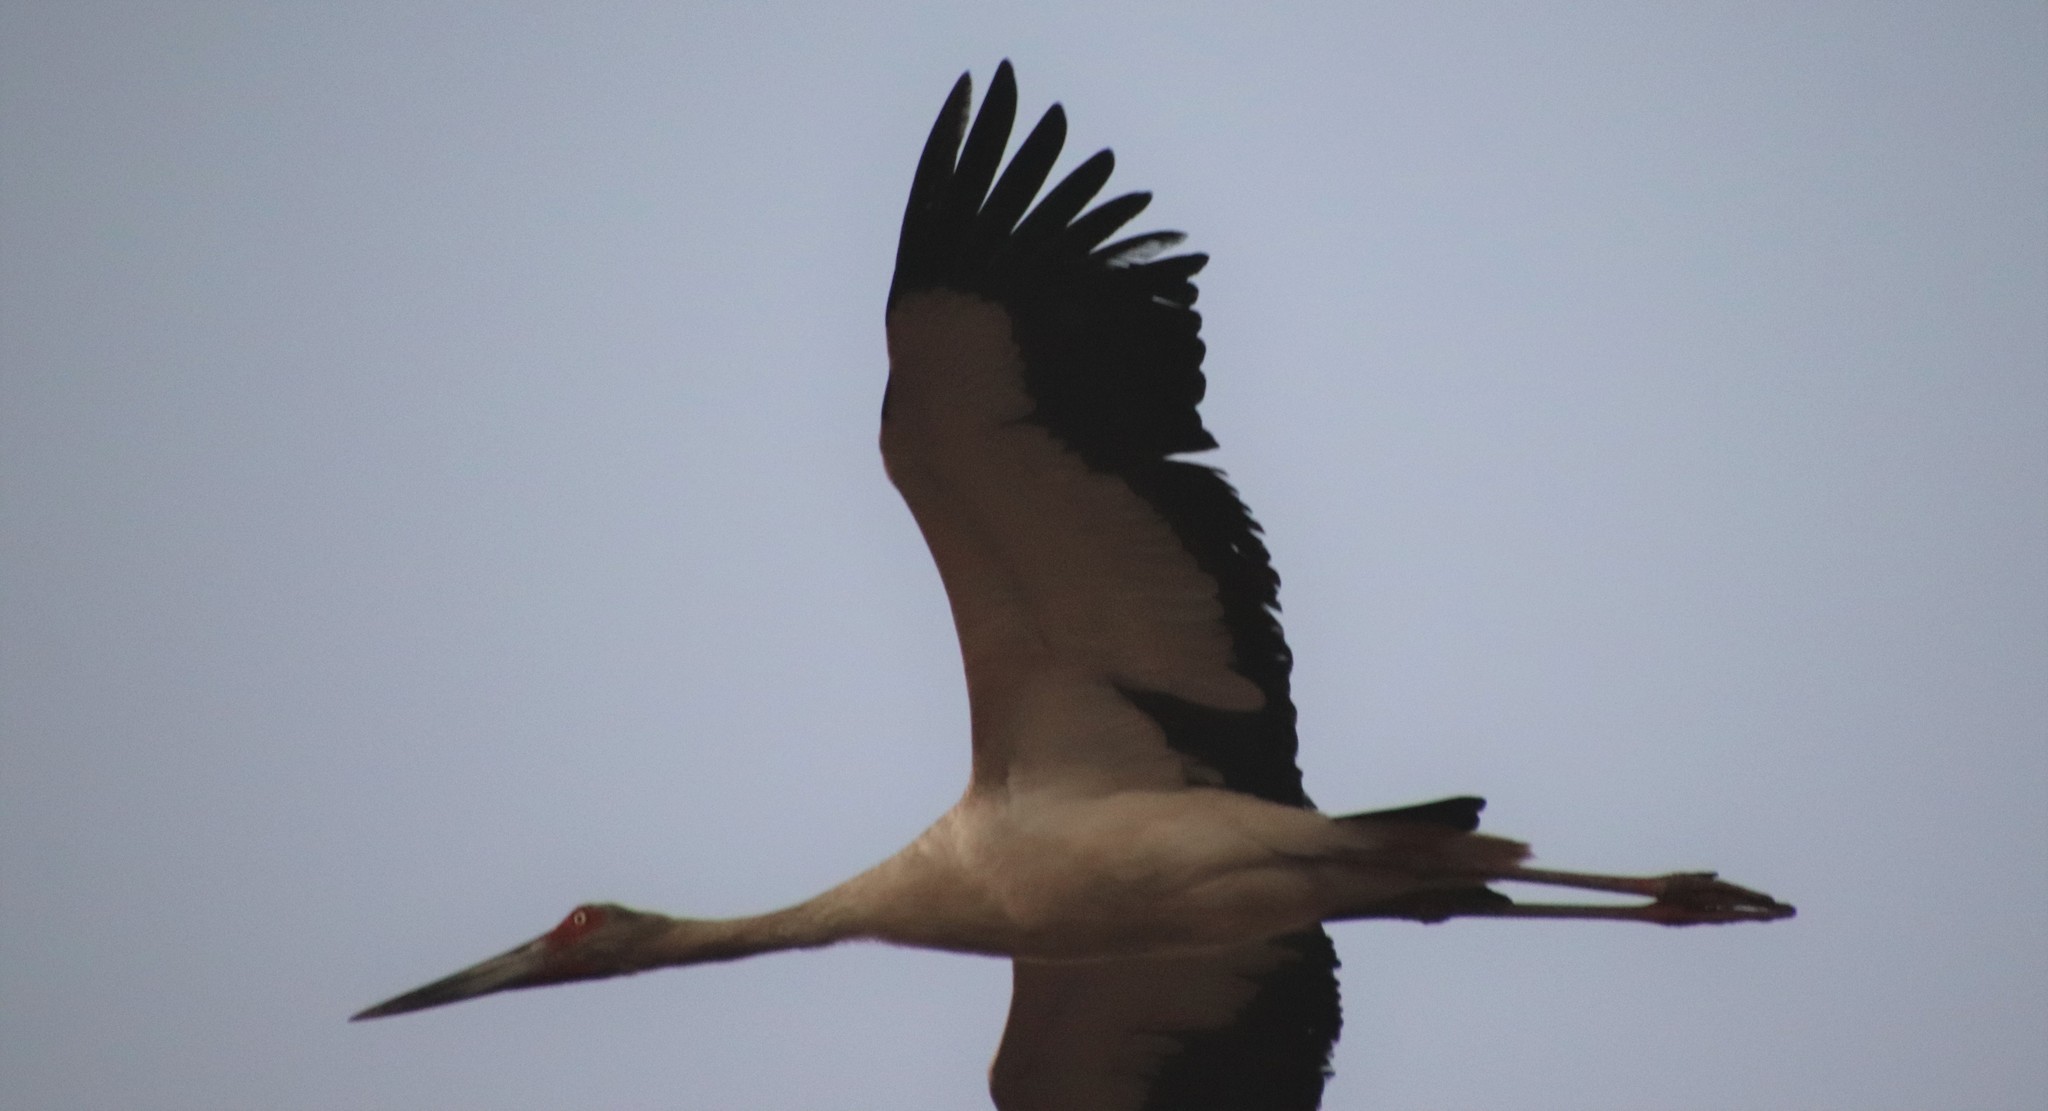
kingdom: Animalia
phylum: Chordata
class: Aves
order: Ciconiiformes
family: Ciconiidae
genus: Ciconia
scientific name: Ciconia maguari
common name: Maguari stork
